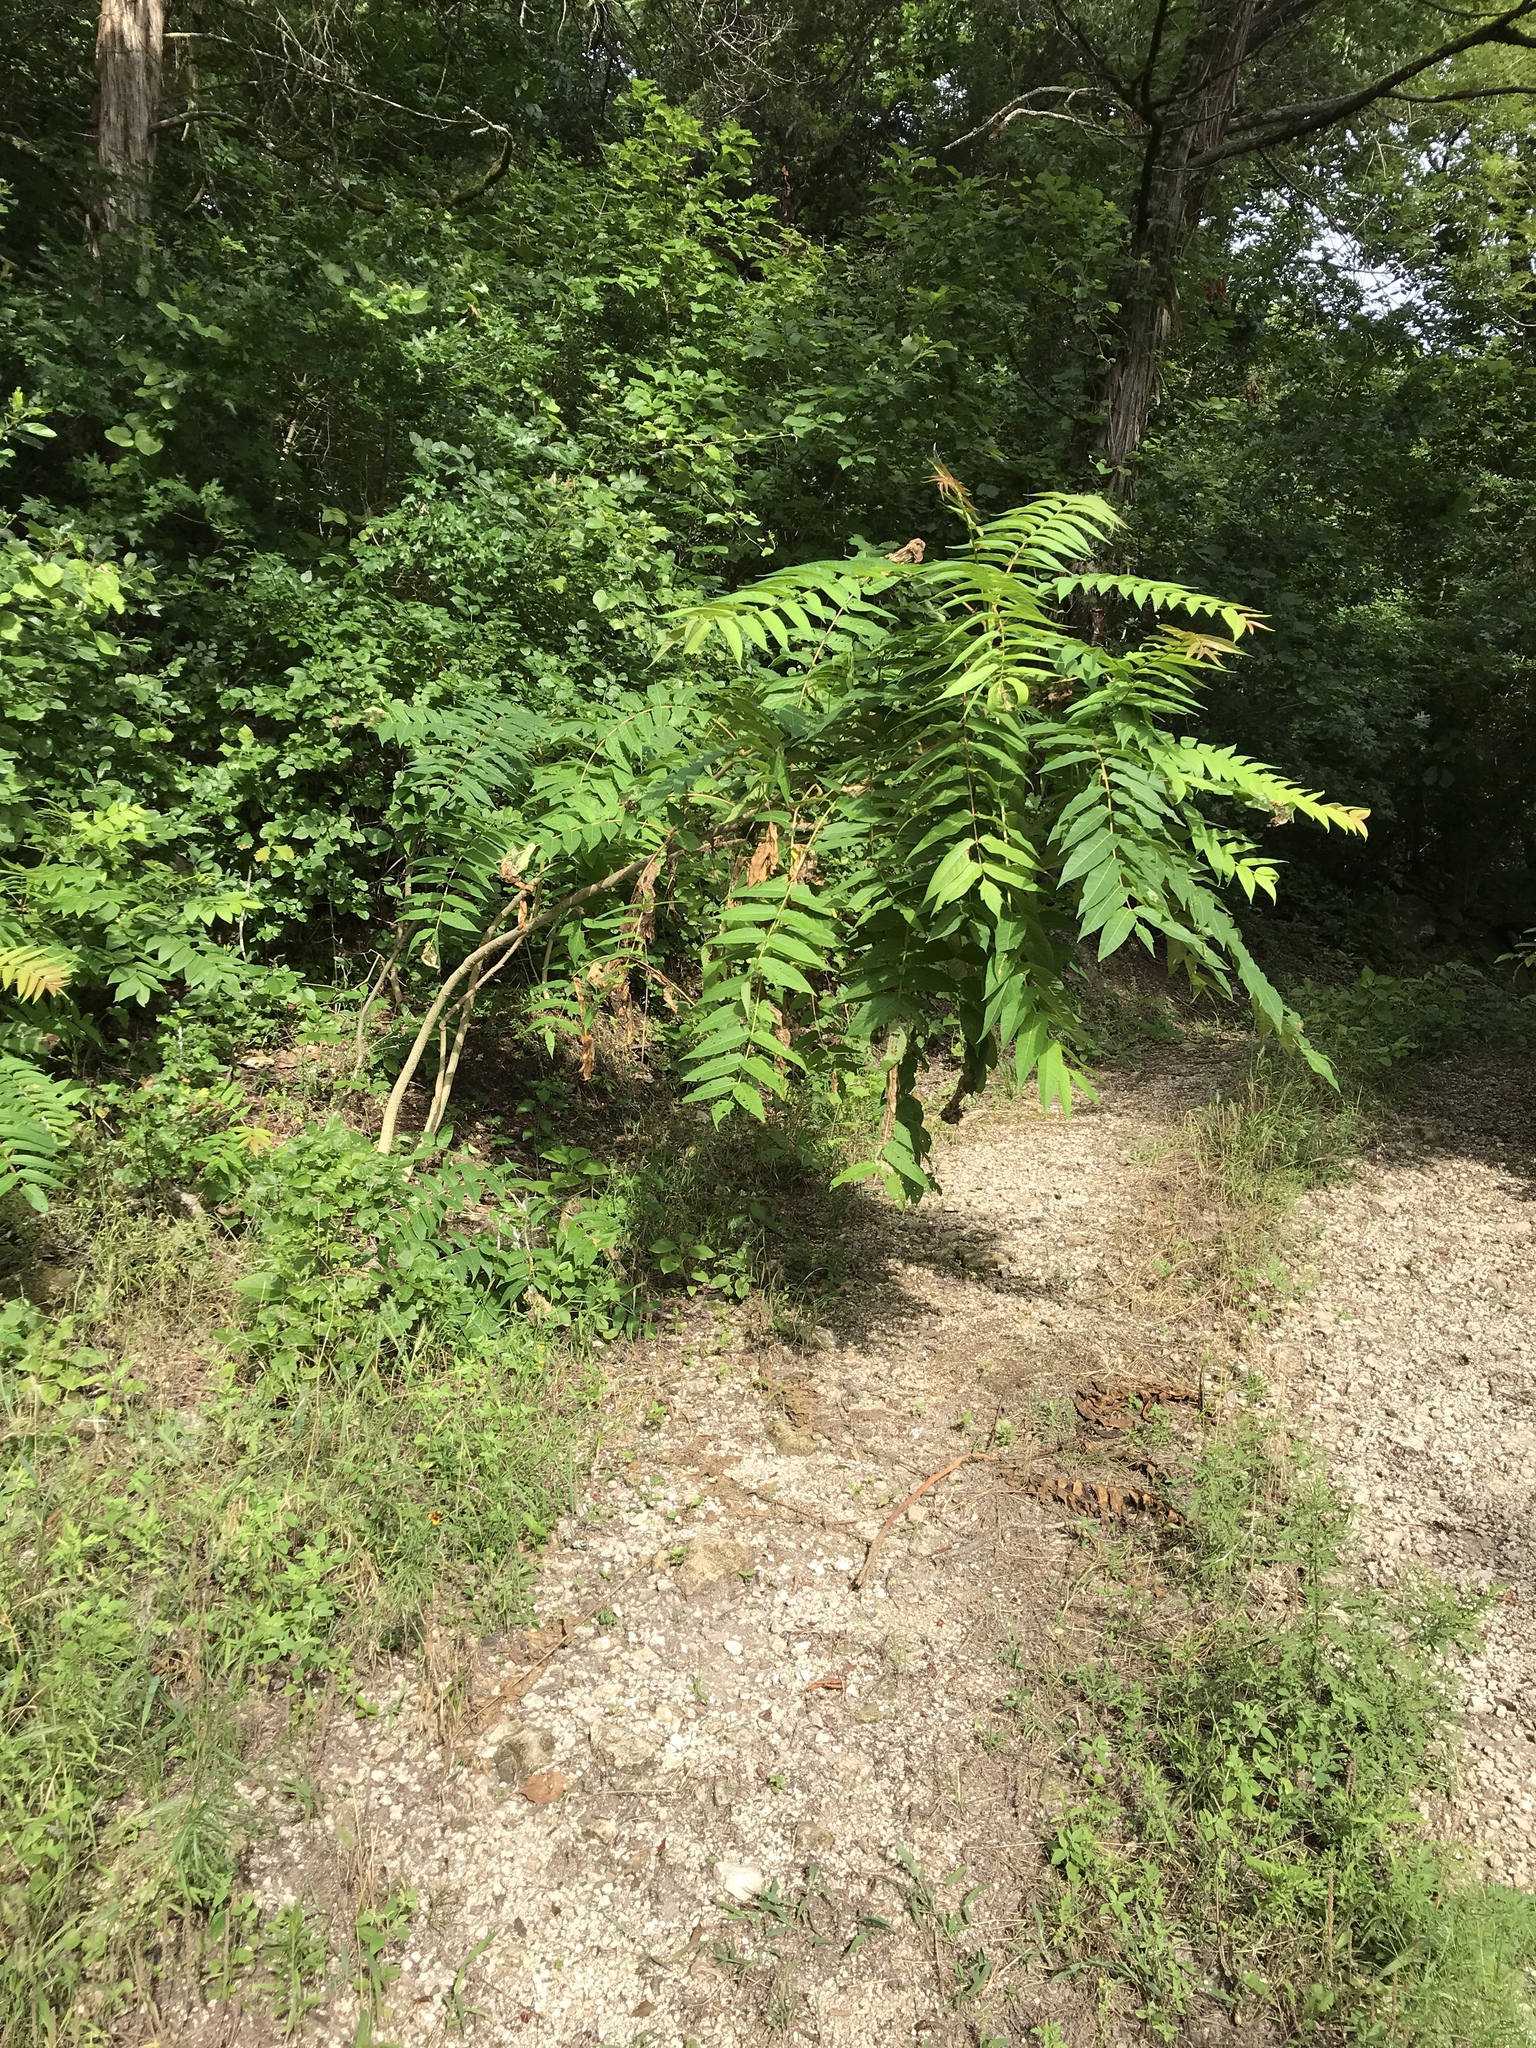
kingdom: Plantae
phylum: Tracheophyta
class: Magnoliopsida
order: Sapindales
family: Simaroubaceae
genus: Ailanthus
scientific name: Ailanthus altissima
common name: Tree-of-heaven
